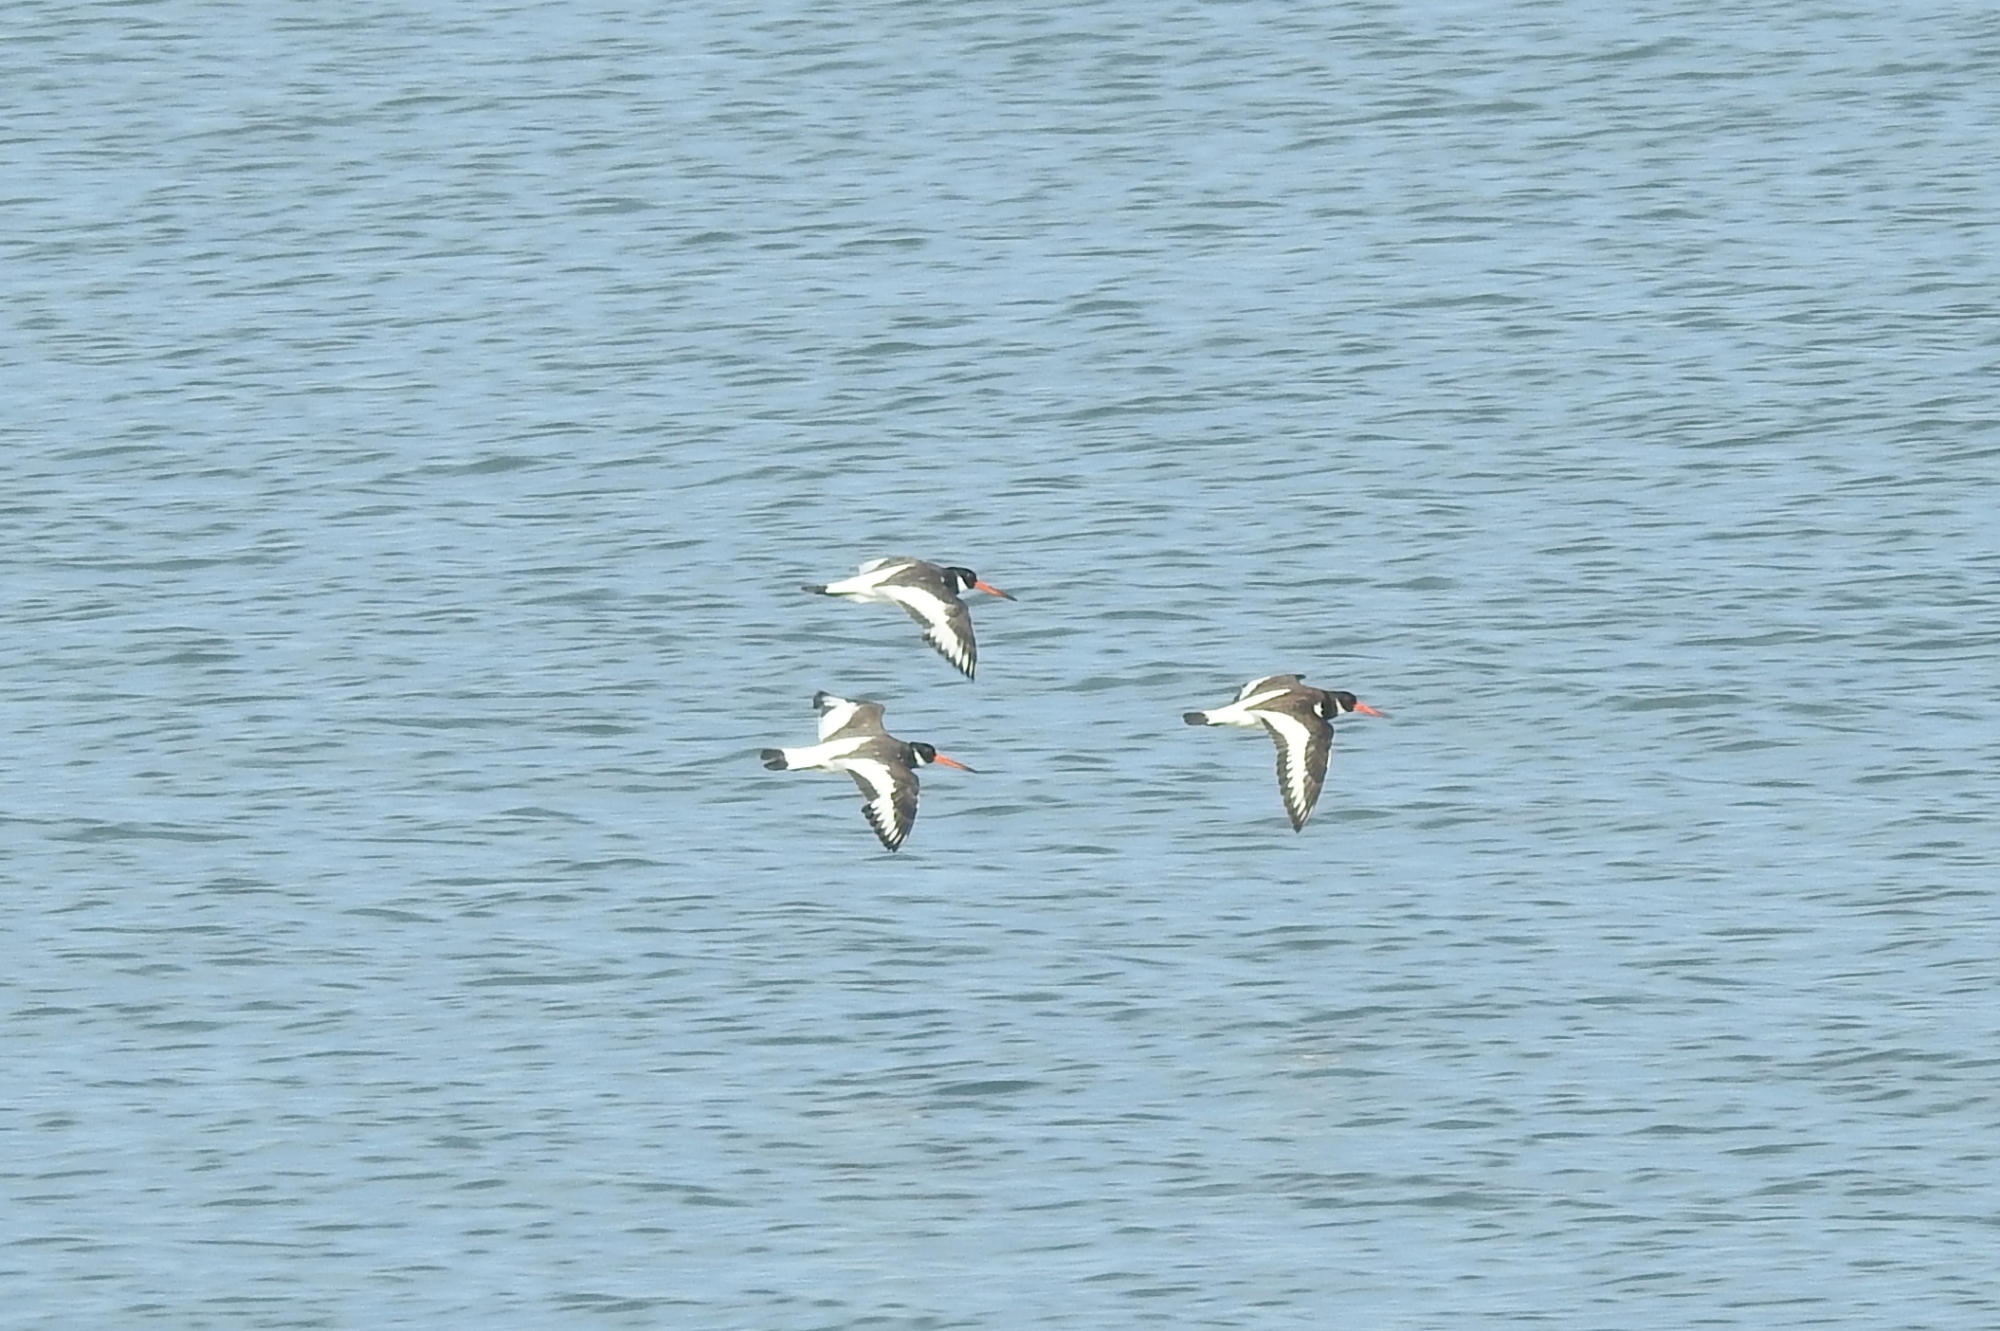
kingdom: Animalia
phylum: Chordata
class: Aves
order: Charadriiformes
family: Haematopodidae
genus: Haematopus
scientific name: Haematopus ostralegus
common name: Eurasian oystercatcher
